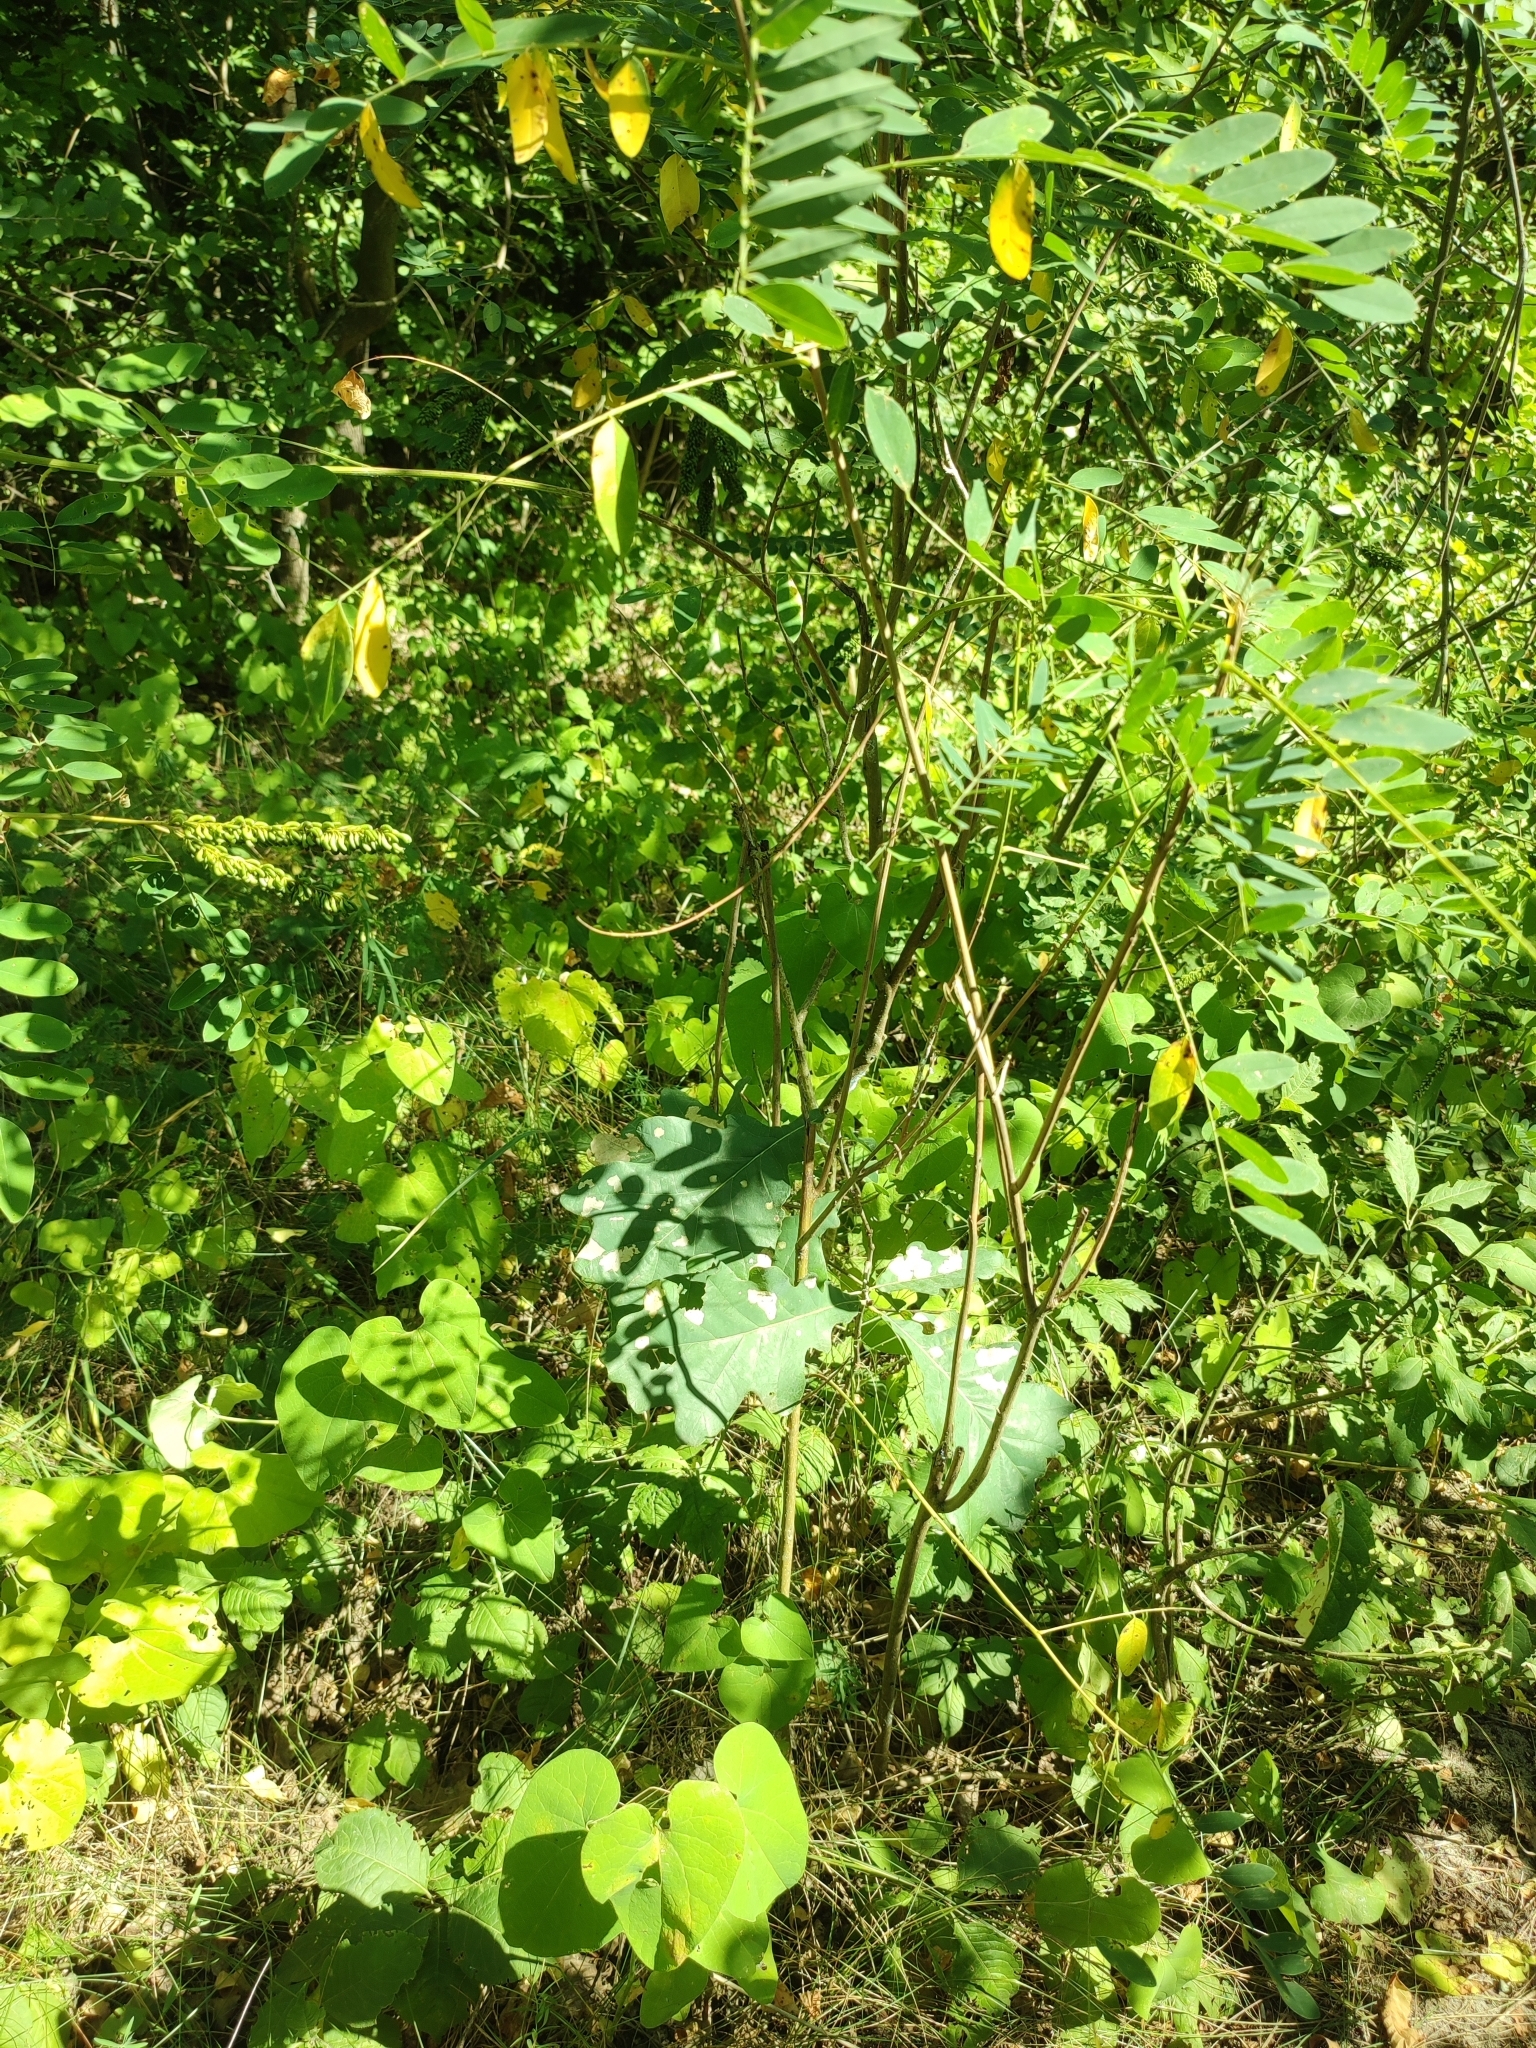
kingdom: Plantae
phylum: Tracheophyta
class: Magnoliopsida
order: Fagales
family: Fagaceae
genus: Quercus
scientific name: Quercus robur
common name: Pedunculate oak
